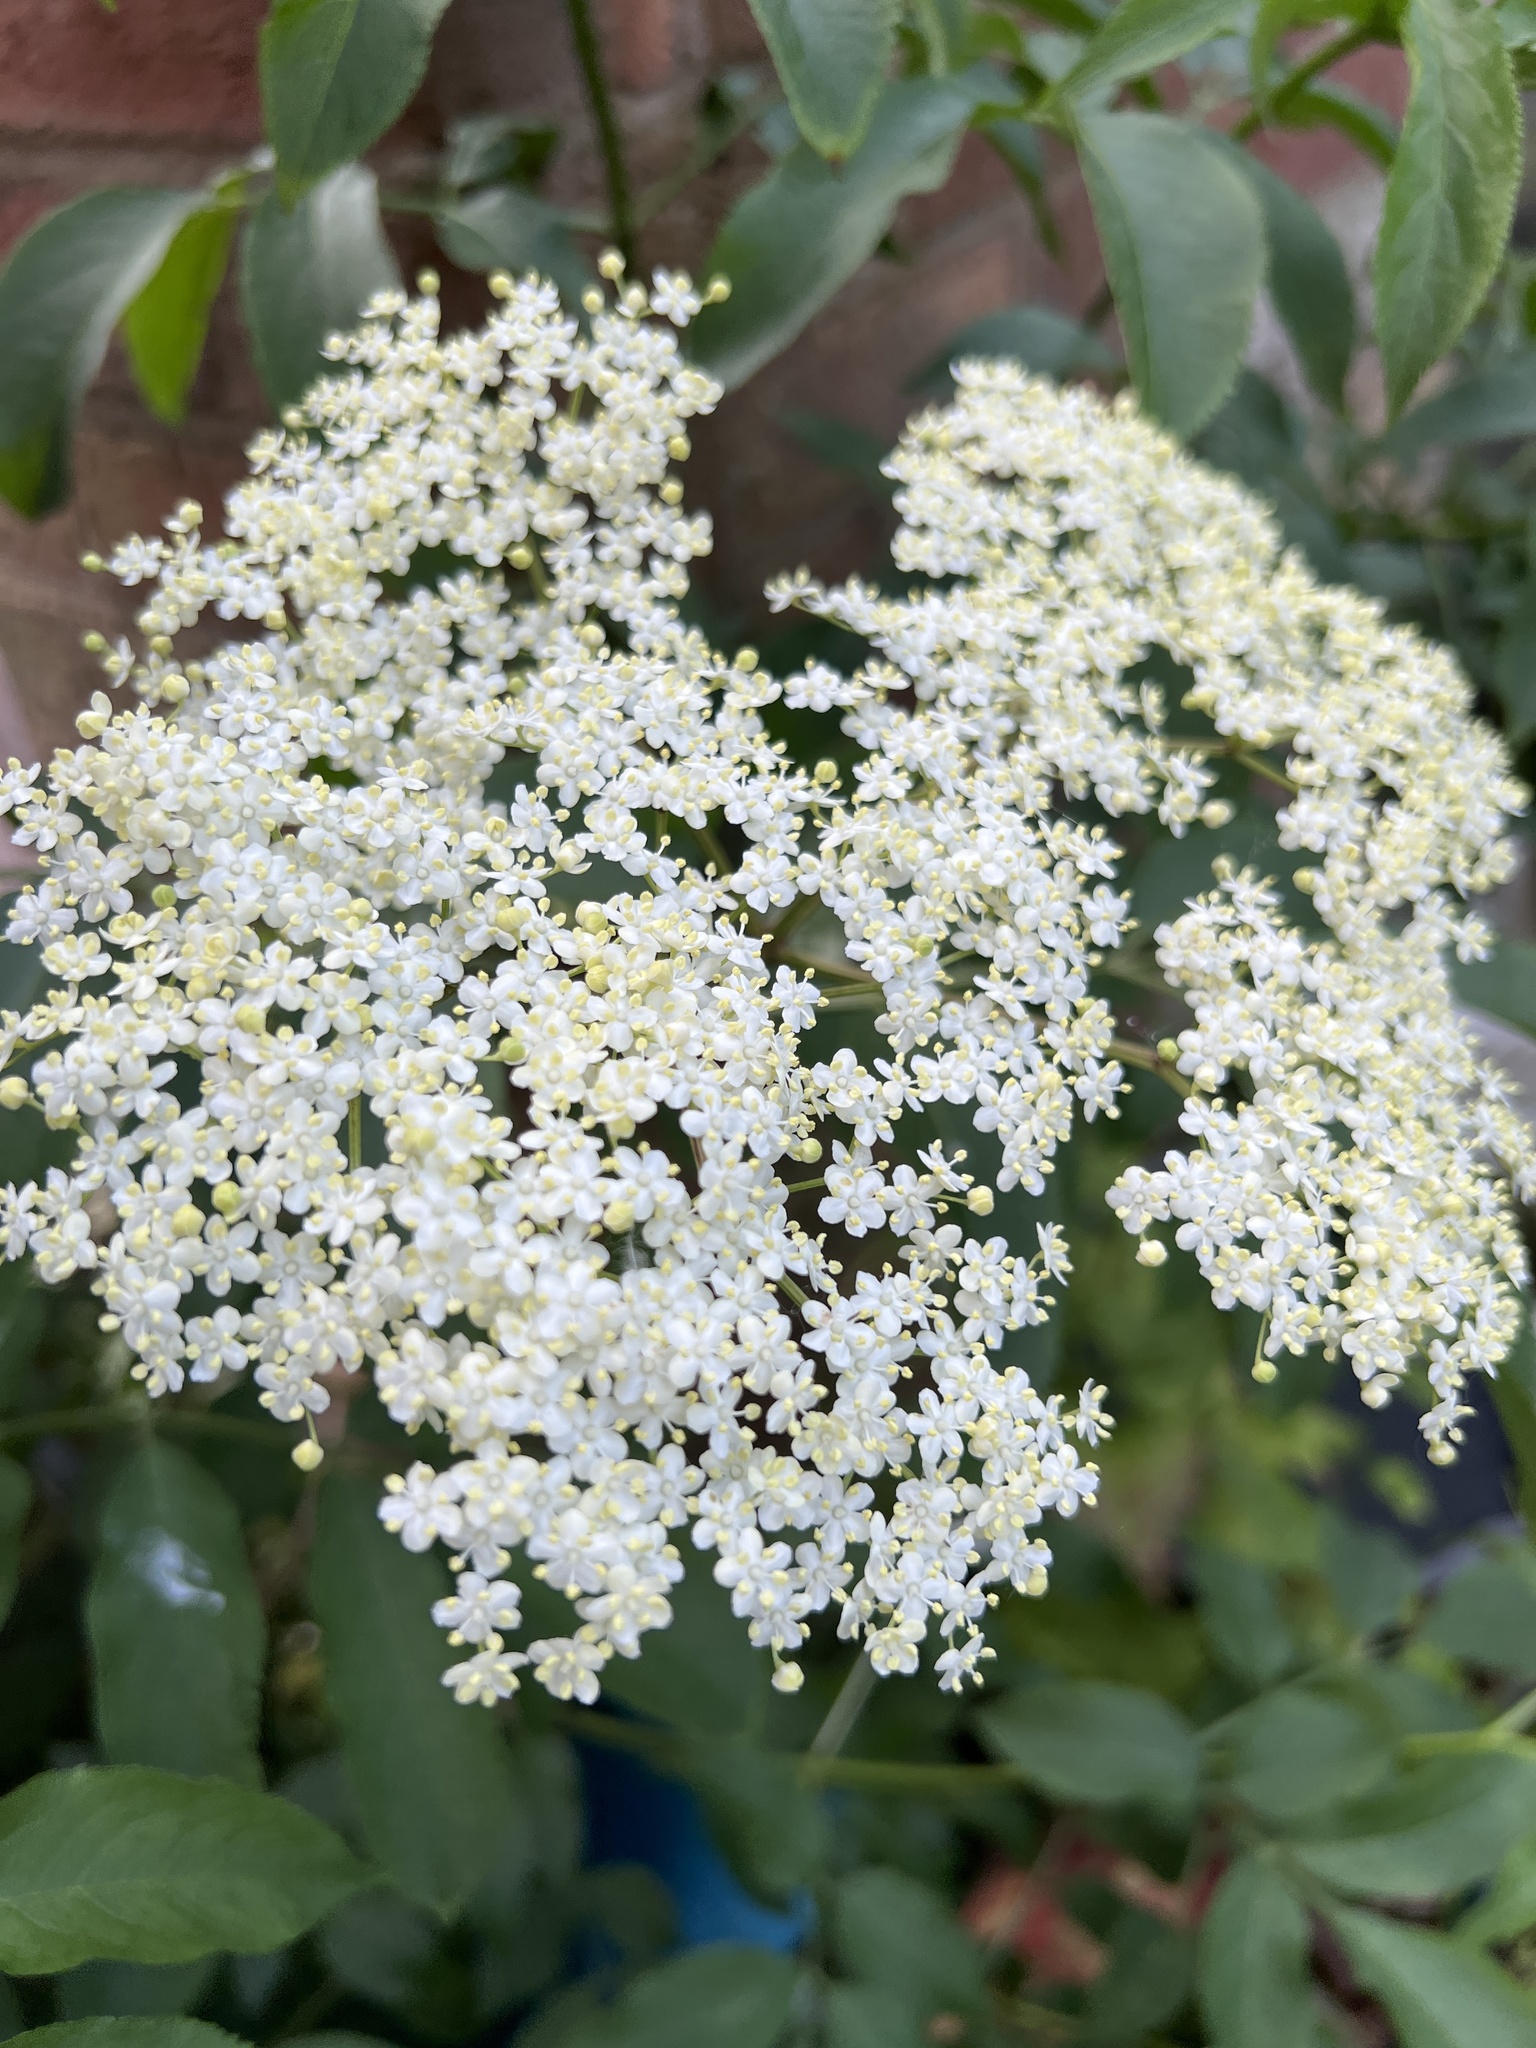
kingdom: Plantae
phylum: Tracheophyta
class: Magnoliopsida
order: Dipsacales
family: Viburnaceae
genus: Sambucus
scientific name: Sambucus nigra
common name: Elder
